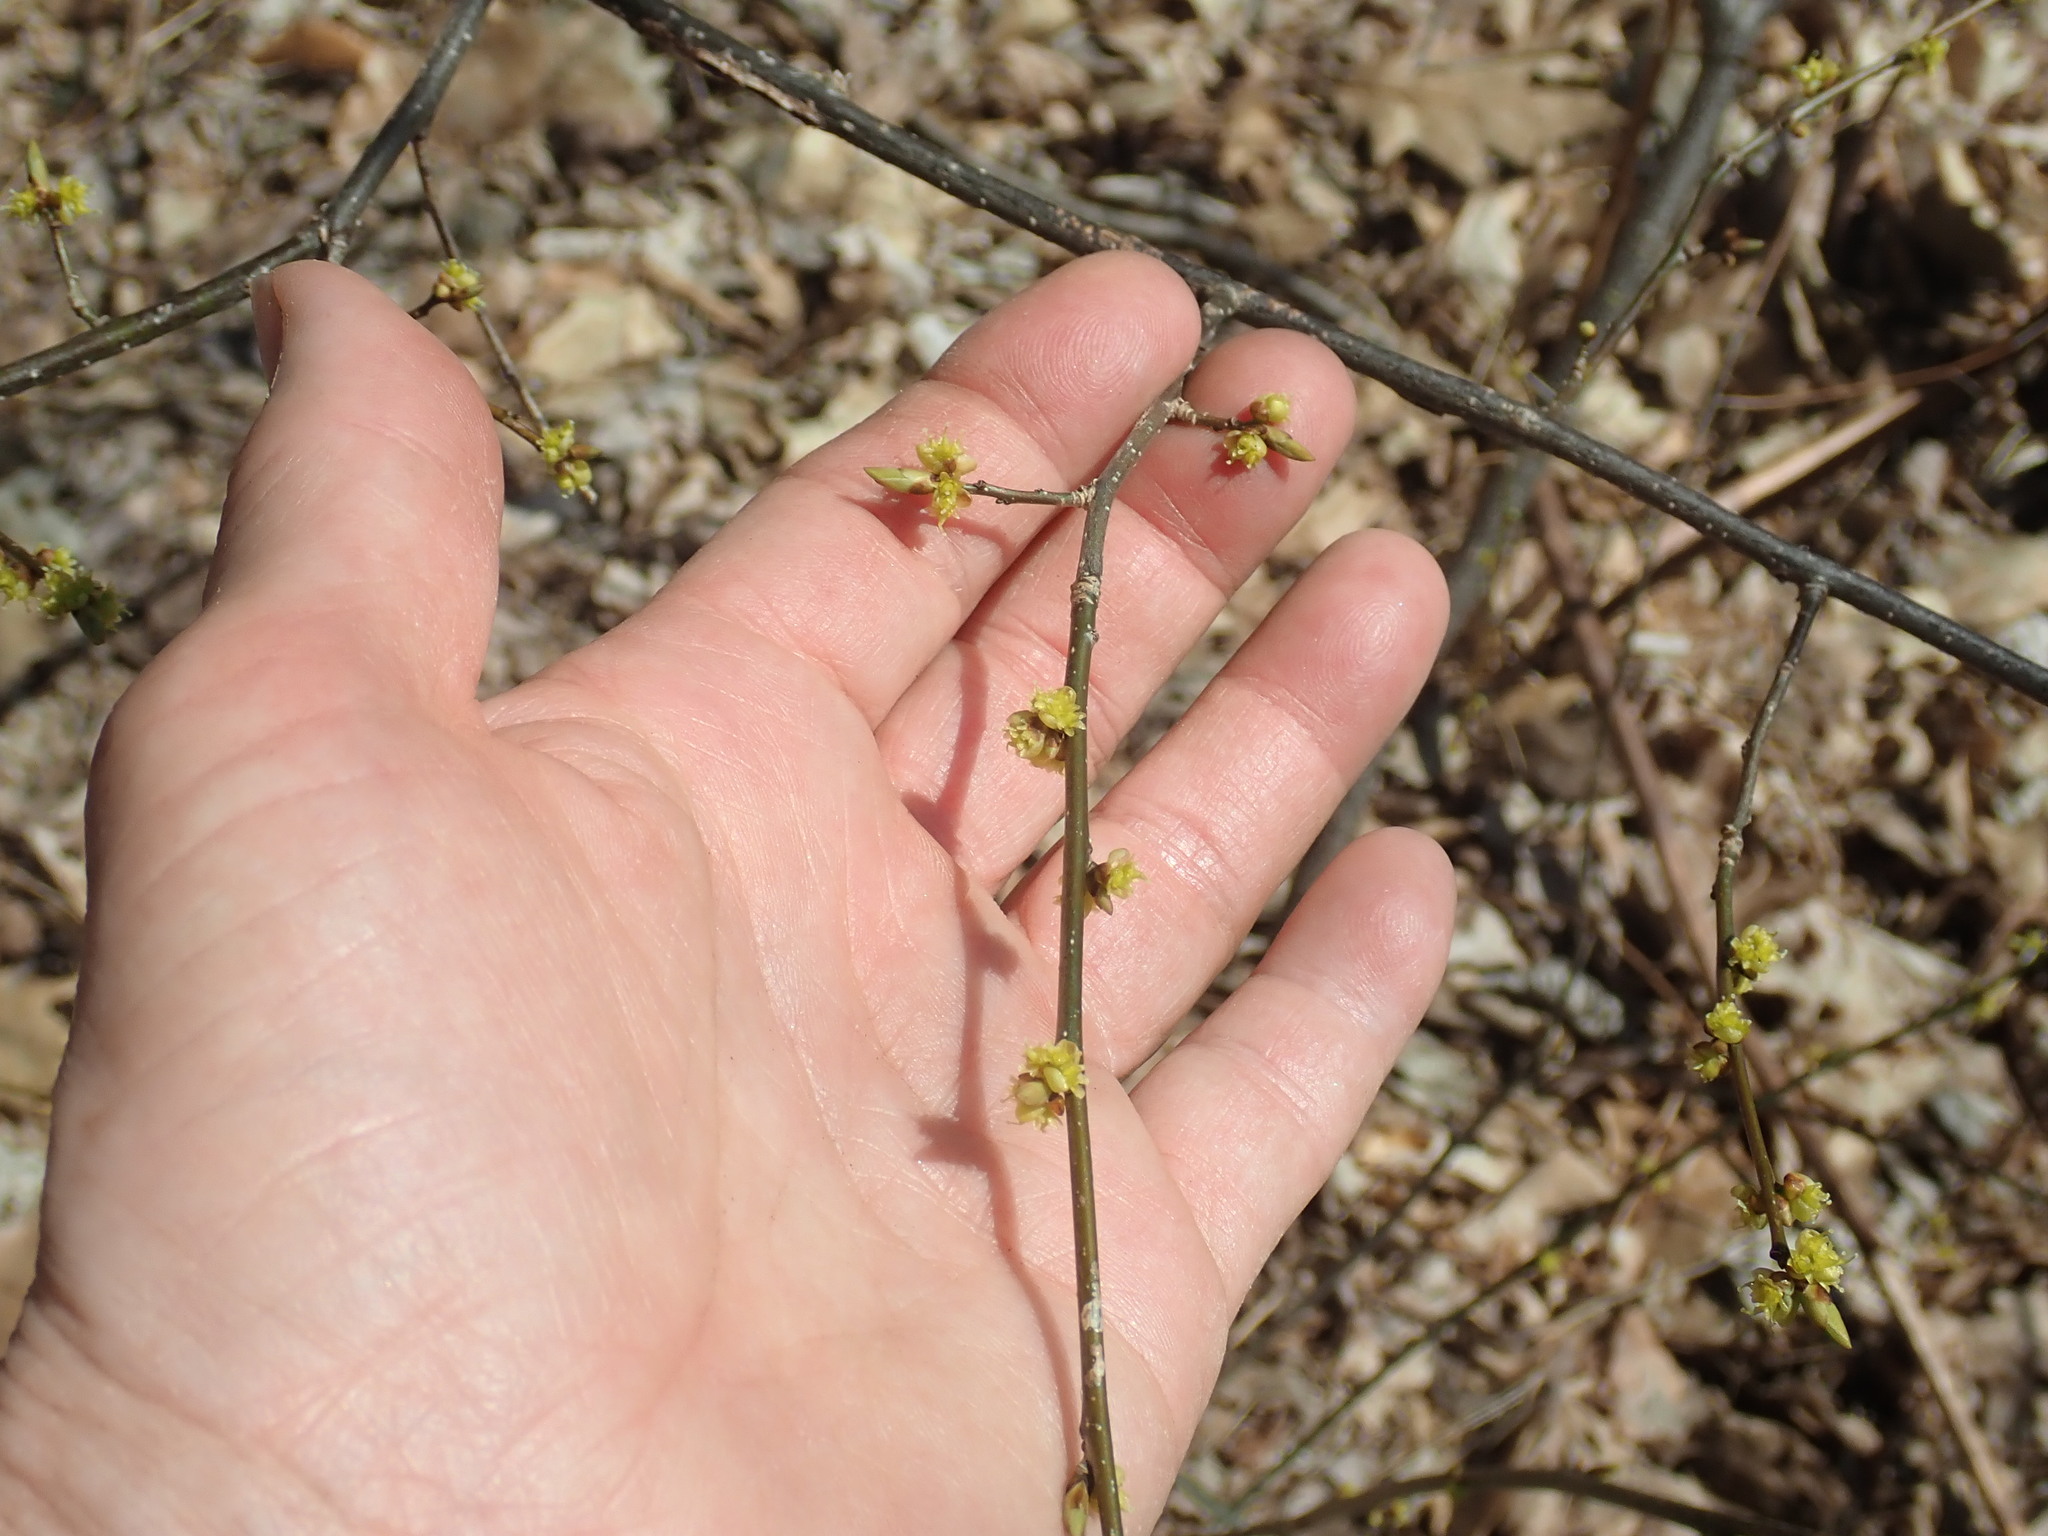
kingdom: Plantae
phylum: Tracheophyta
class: Magnoliopsida
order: Laurales
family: Lauraceae
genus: Lindera
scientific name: Lindera benzoin
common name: Spicebush
